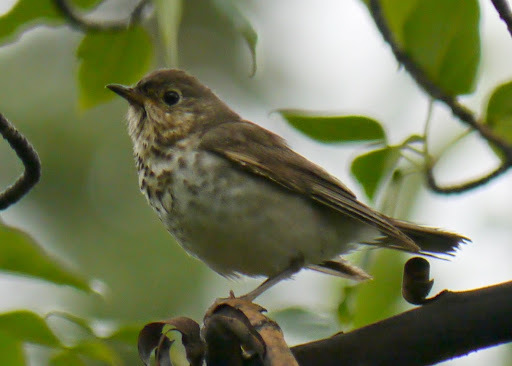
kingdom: Animalia
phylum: Chordata
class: Aves
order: Passeriformes
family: Turdidae
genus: Catharus
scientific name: Catharus ustulatus
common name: Swainson's thrush
